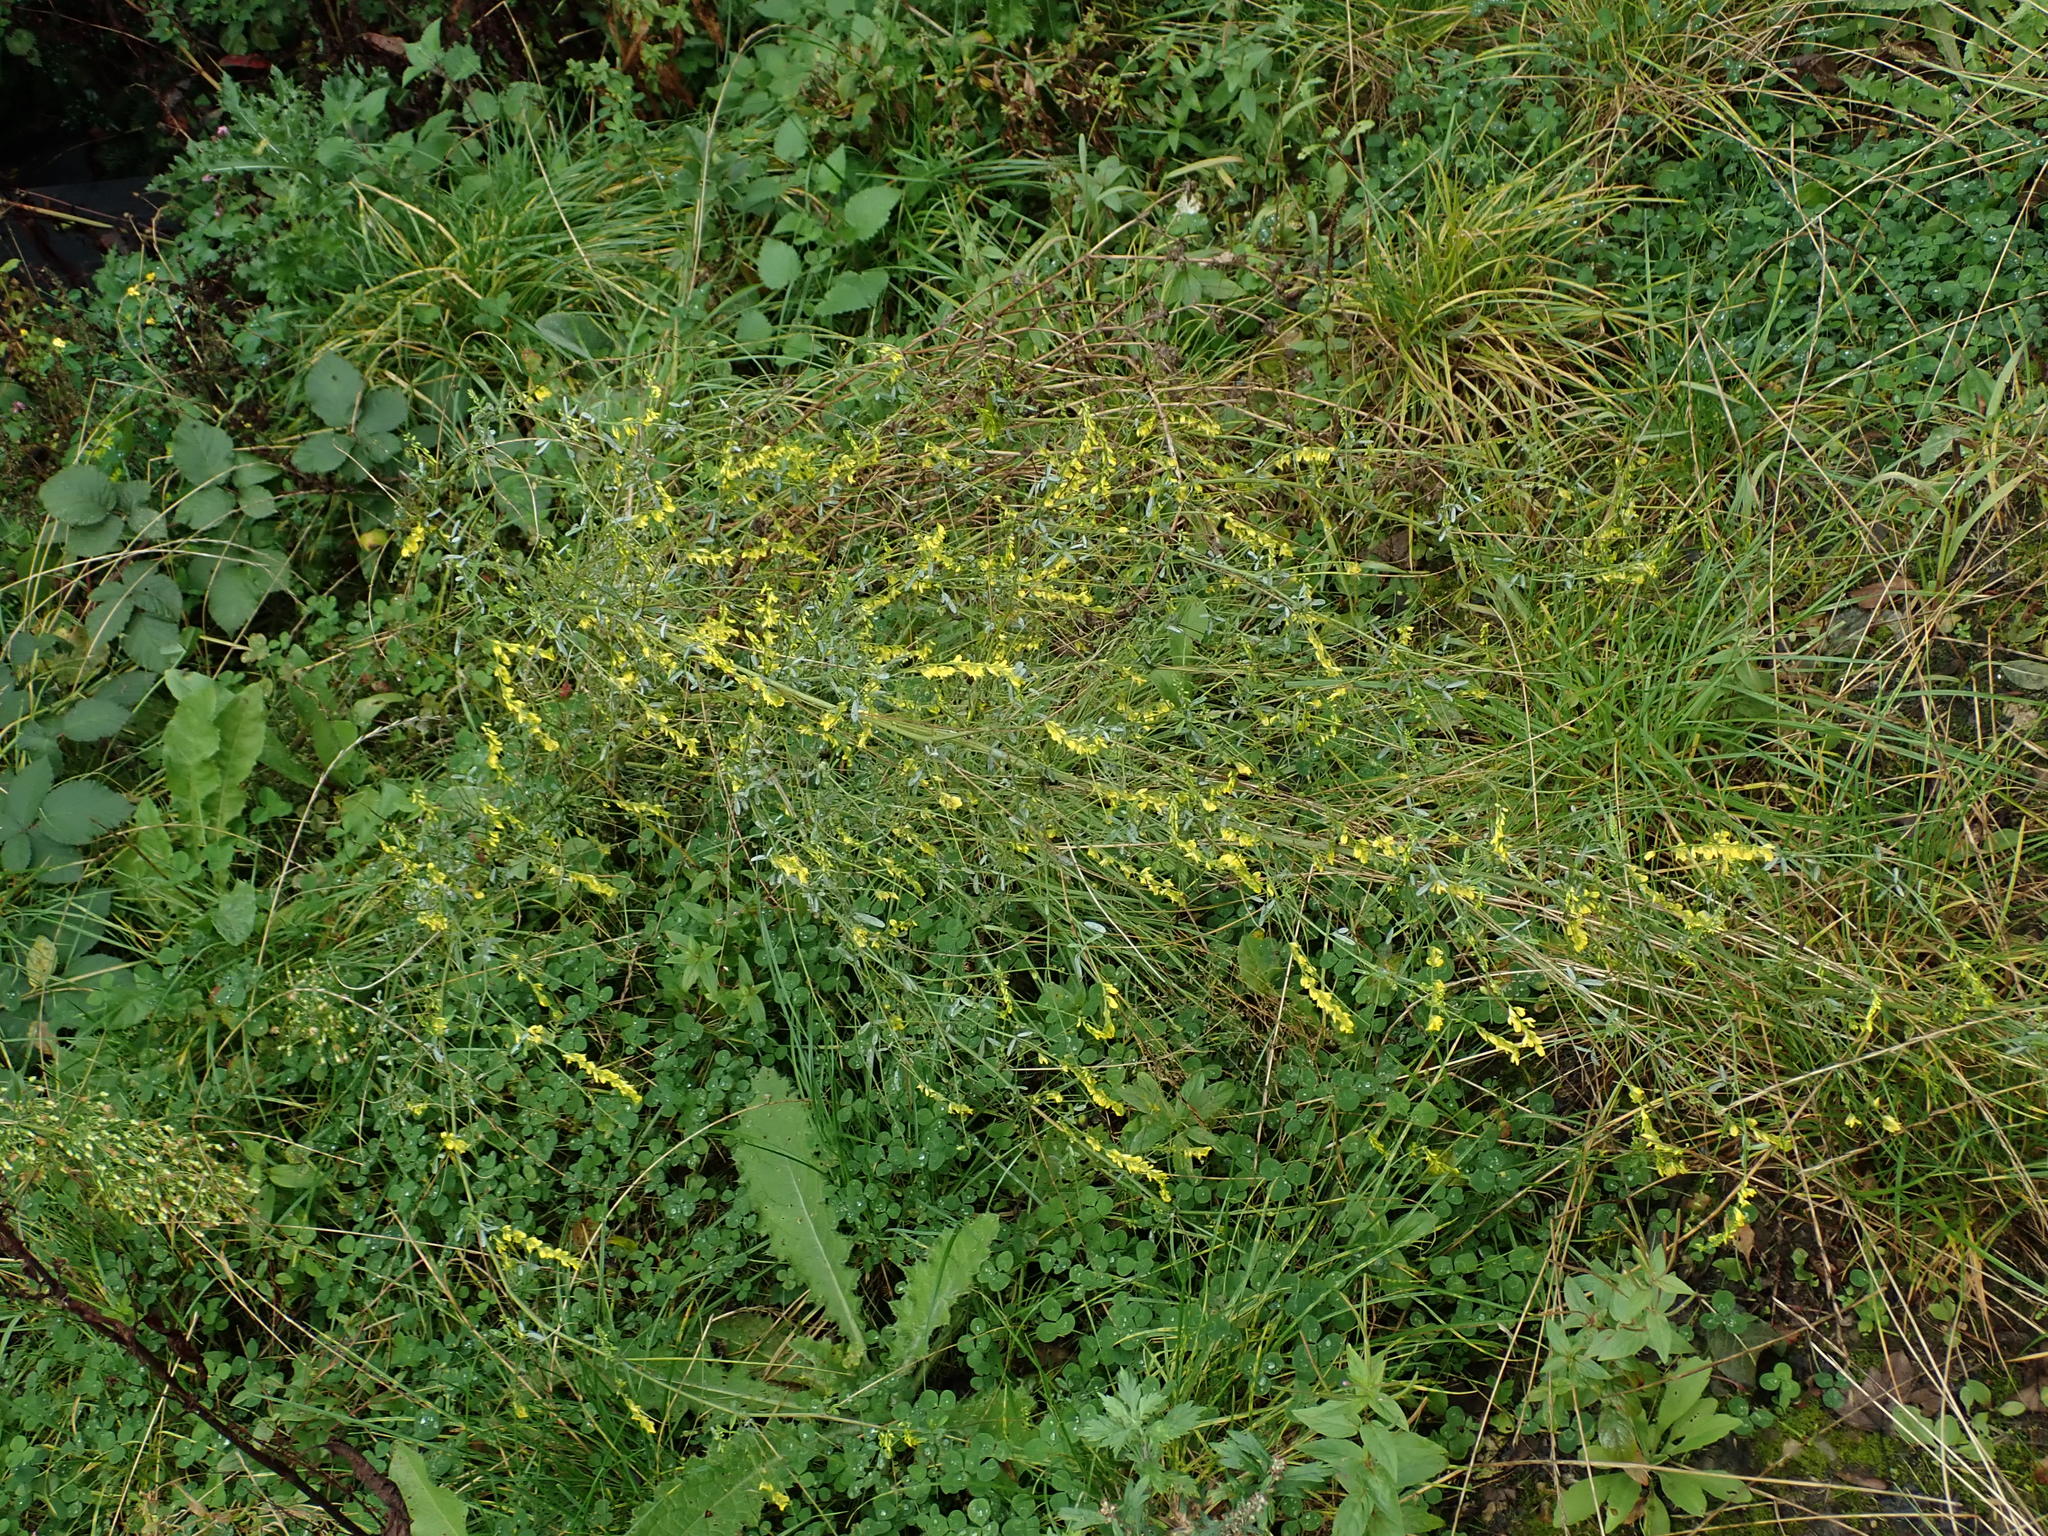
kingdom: Plantae
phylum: Tracheophyta
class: Magnoliopsida
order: Fabales
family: Fabaceae
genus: Melilotus
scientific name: Melilotus officinalis
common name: Sweetclover
